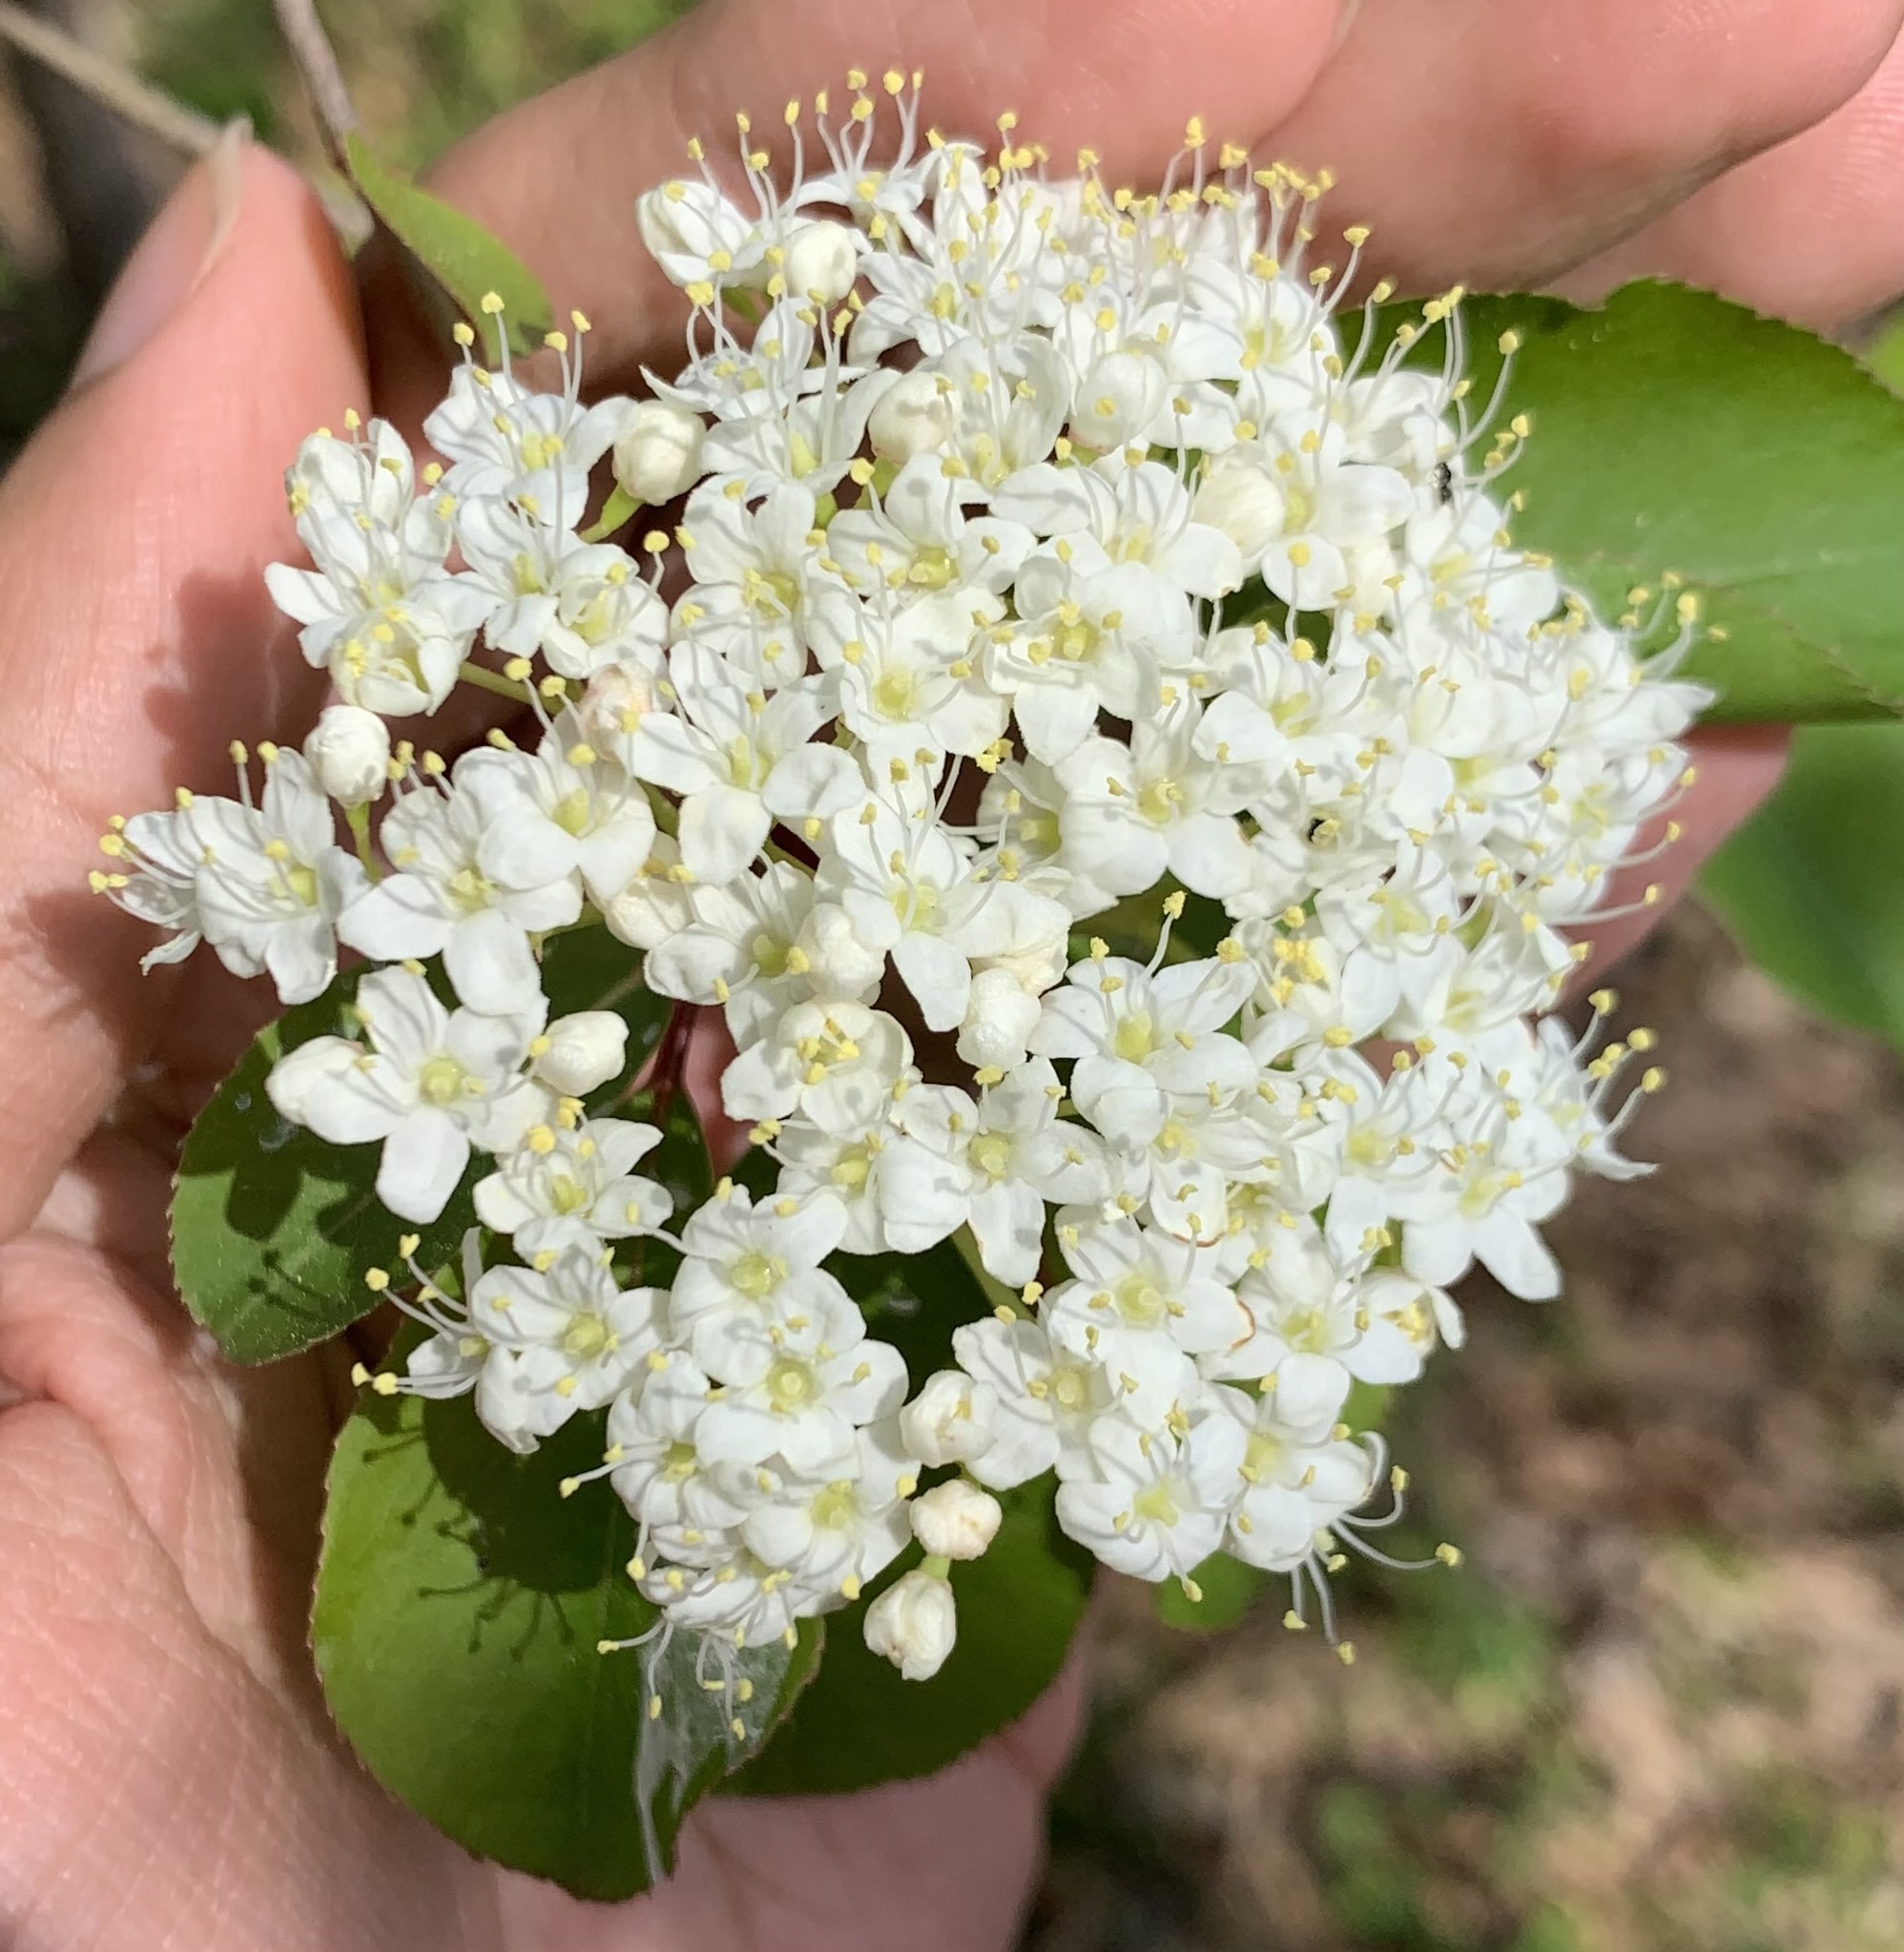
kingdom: Plantae
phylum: Tracheophyta
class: Magnoliopsida
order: Dipsacales
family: Viburnaceae
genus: Viburnum
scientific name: Viburnum prunifolium
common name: Black haw
